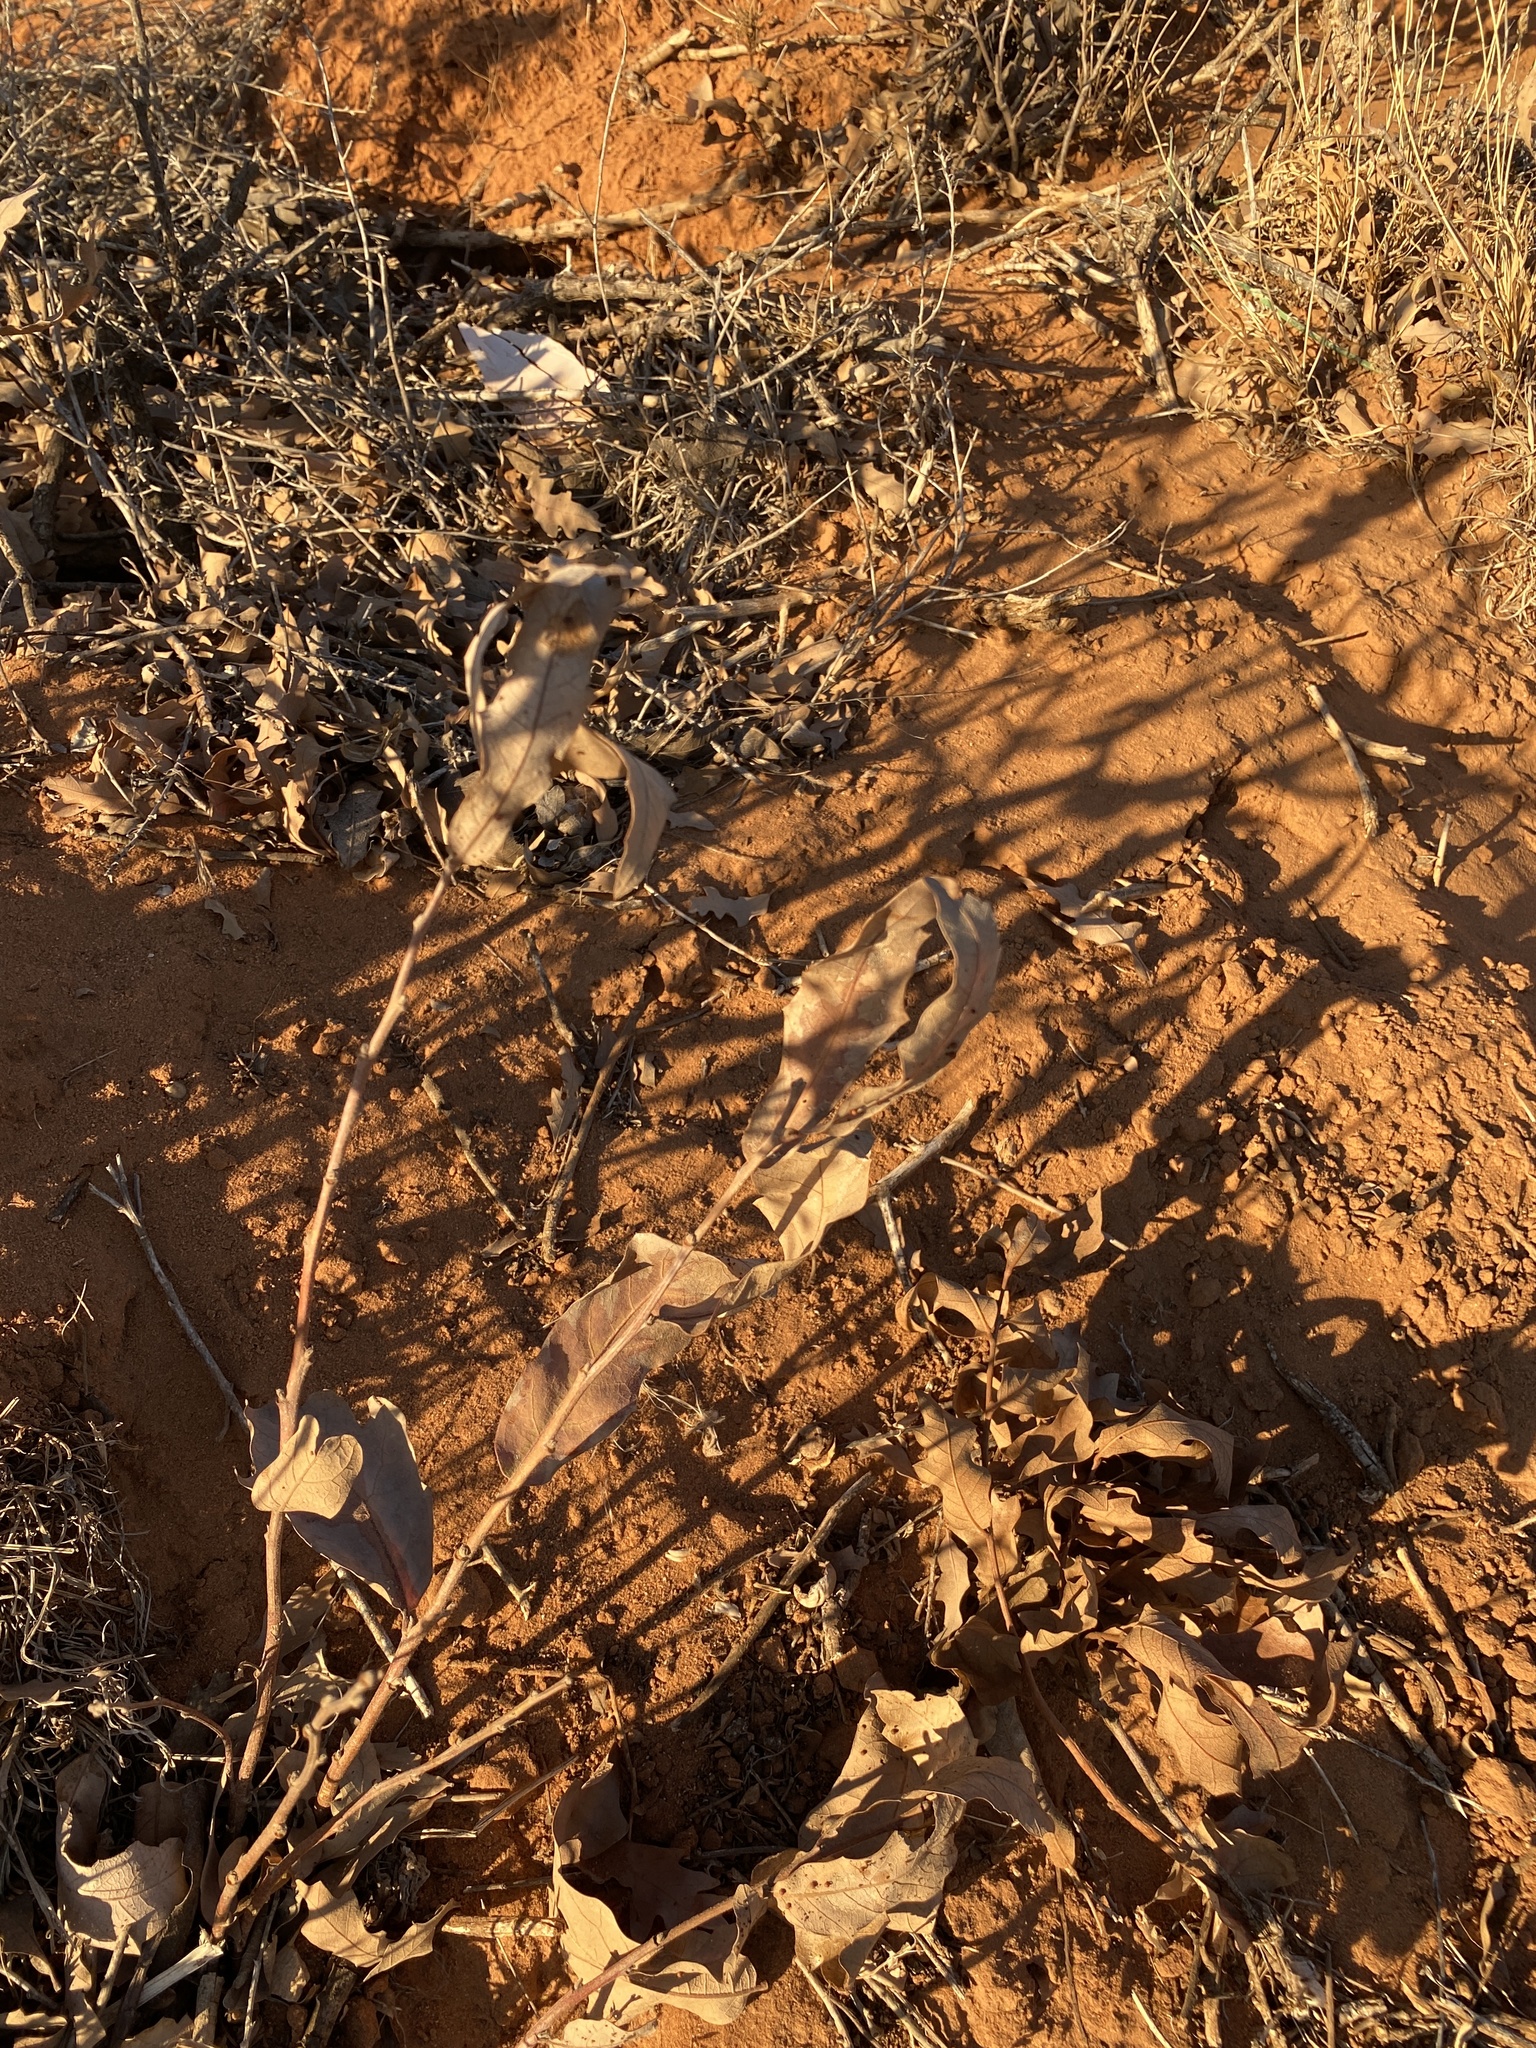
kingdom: Plantae
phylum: Tracheophyta
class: Magnoliopsida
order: Fagales
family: Fagaceae
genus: Quercus
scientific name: Quercus havardii
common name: Shinnery oak
